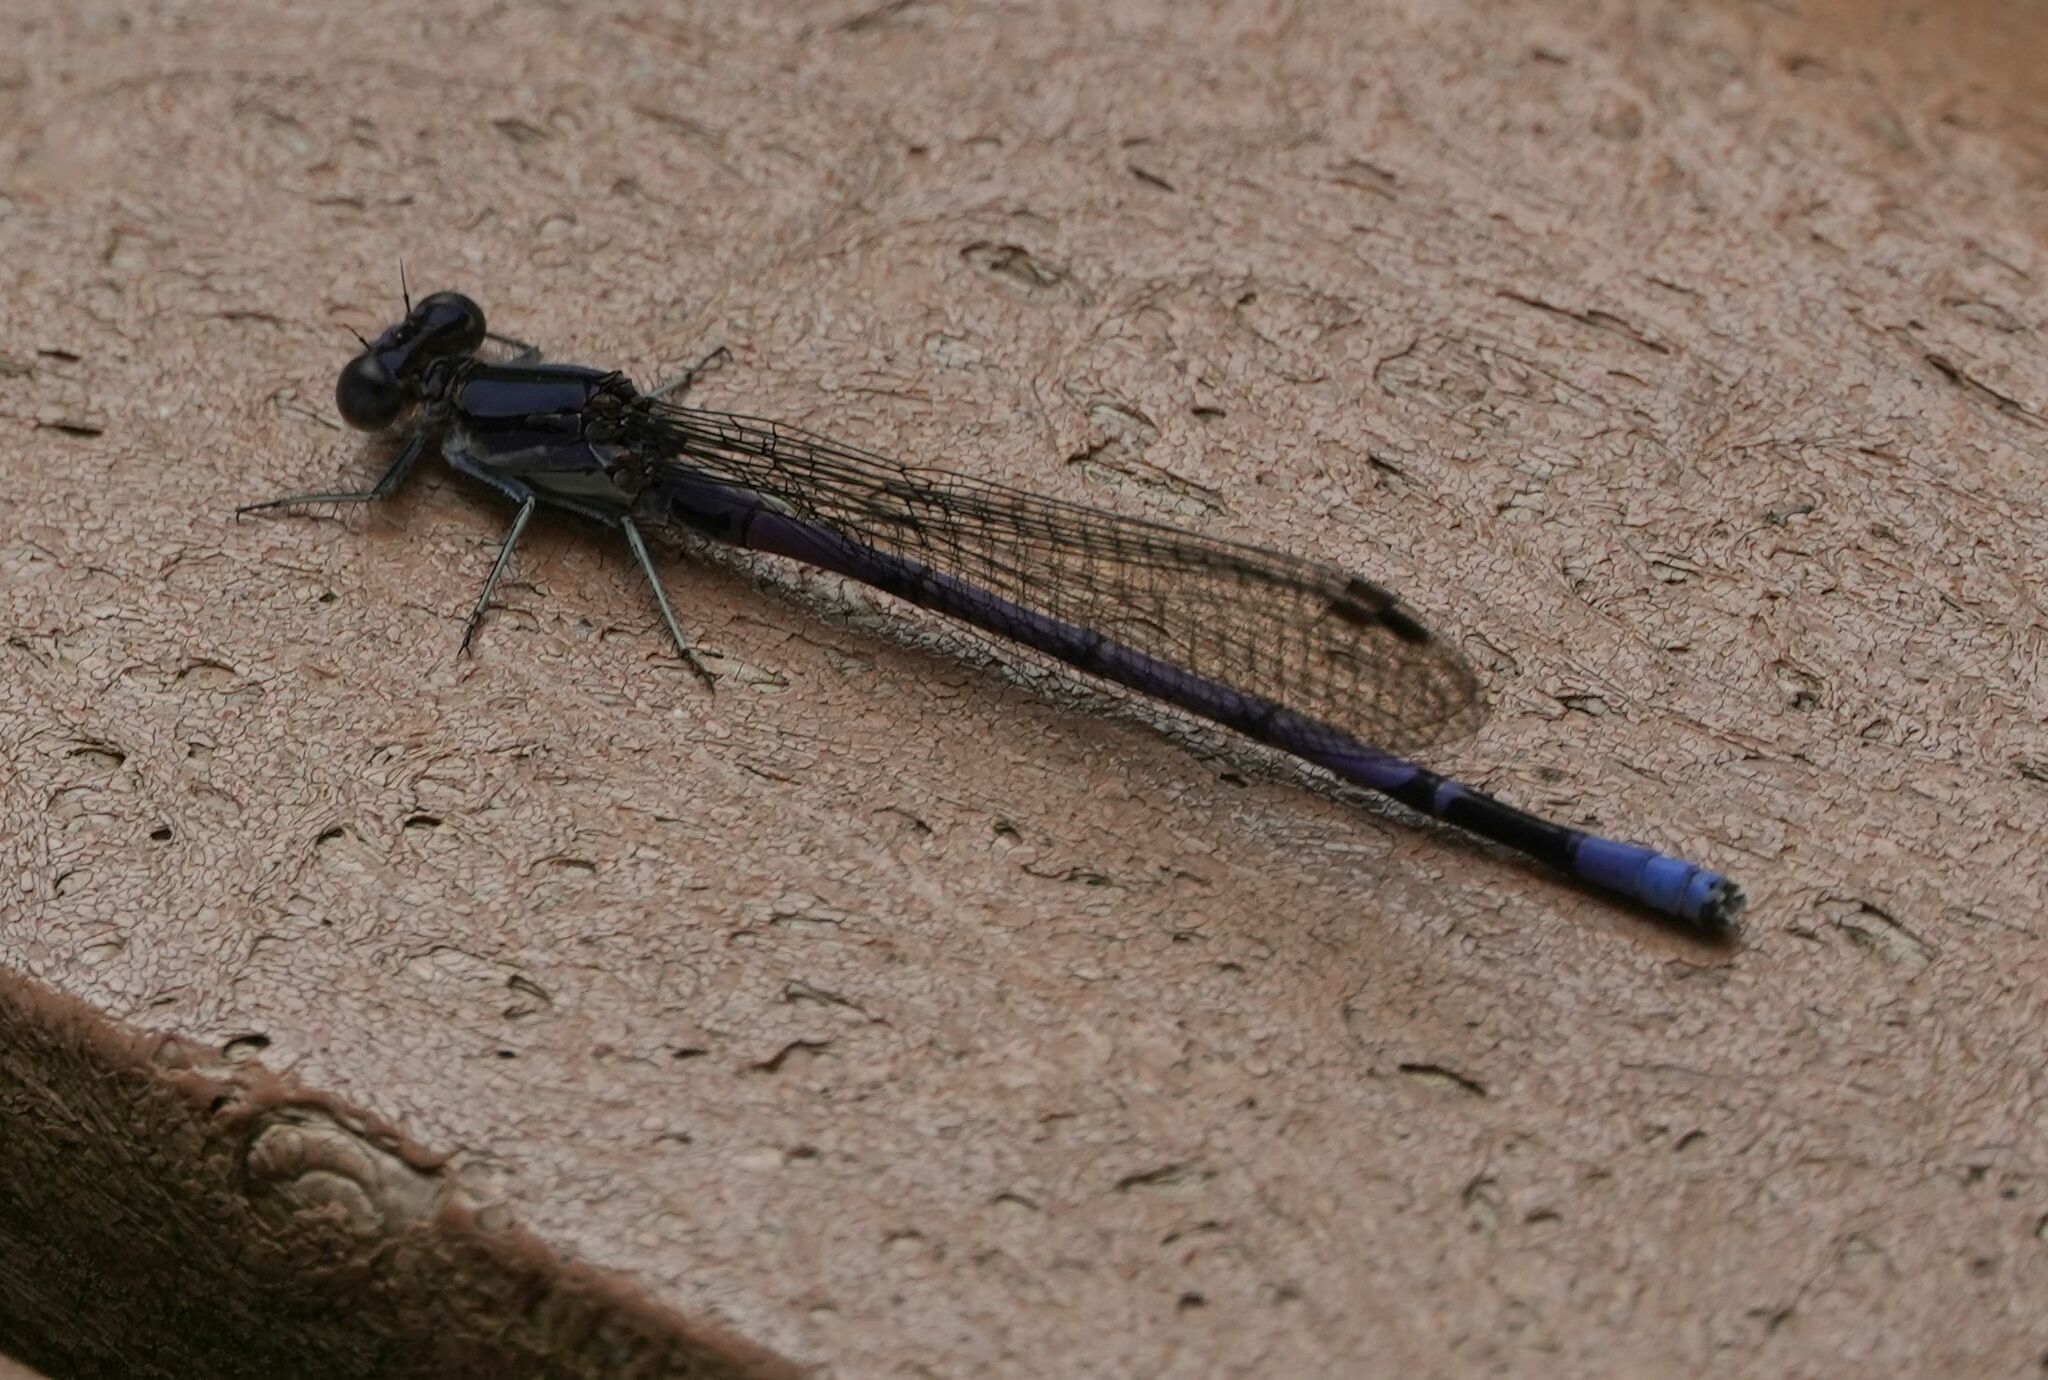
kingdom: Animalia
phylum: Arthropoda
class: Insecta
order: Odonata
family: Coenagrionidae
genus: Argia
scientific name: Argia fumipennis
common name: Variable dancer
